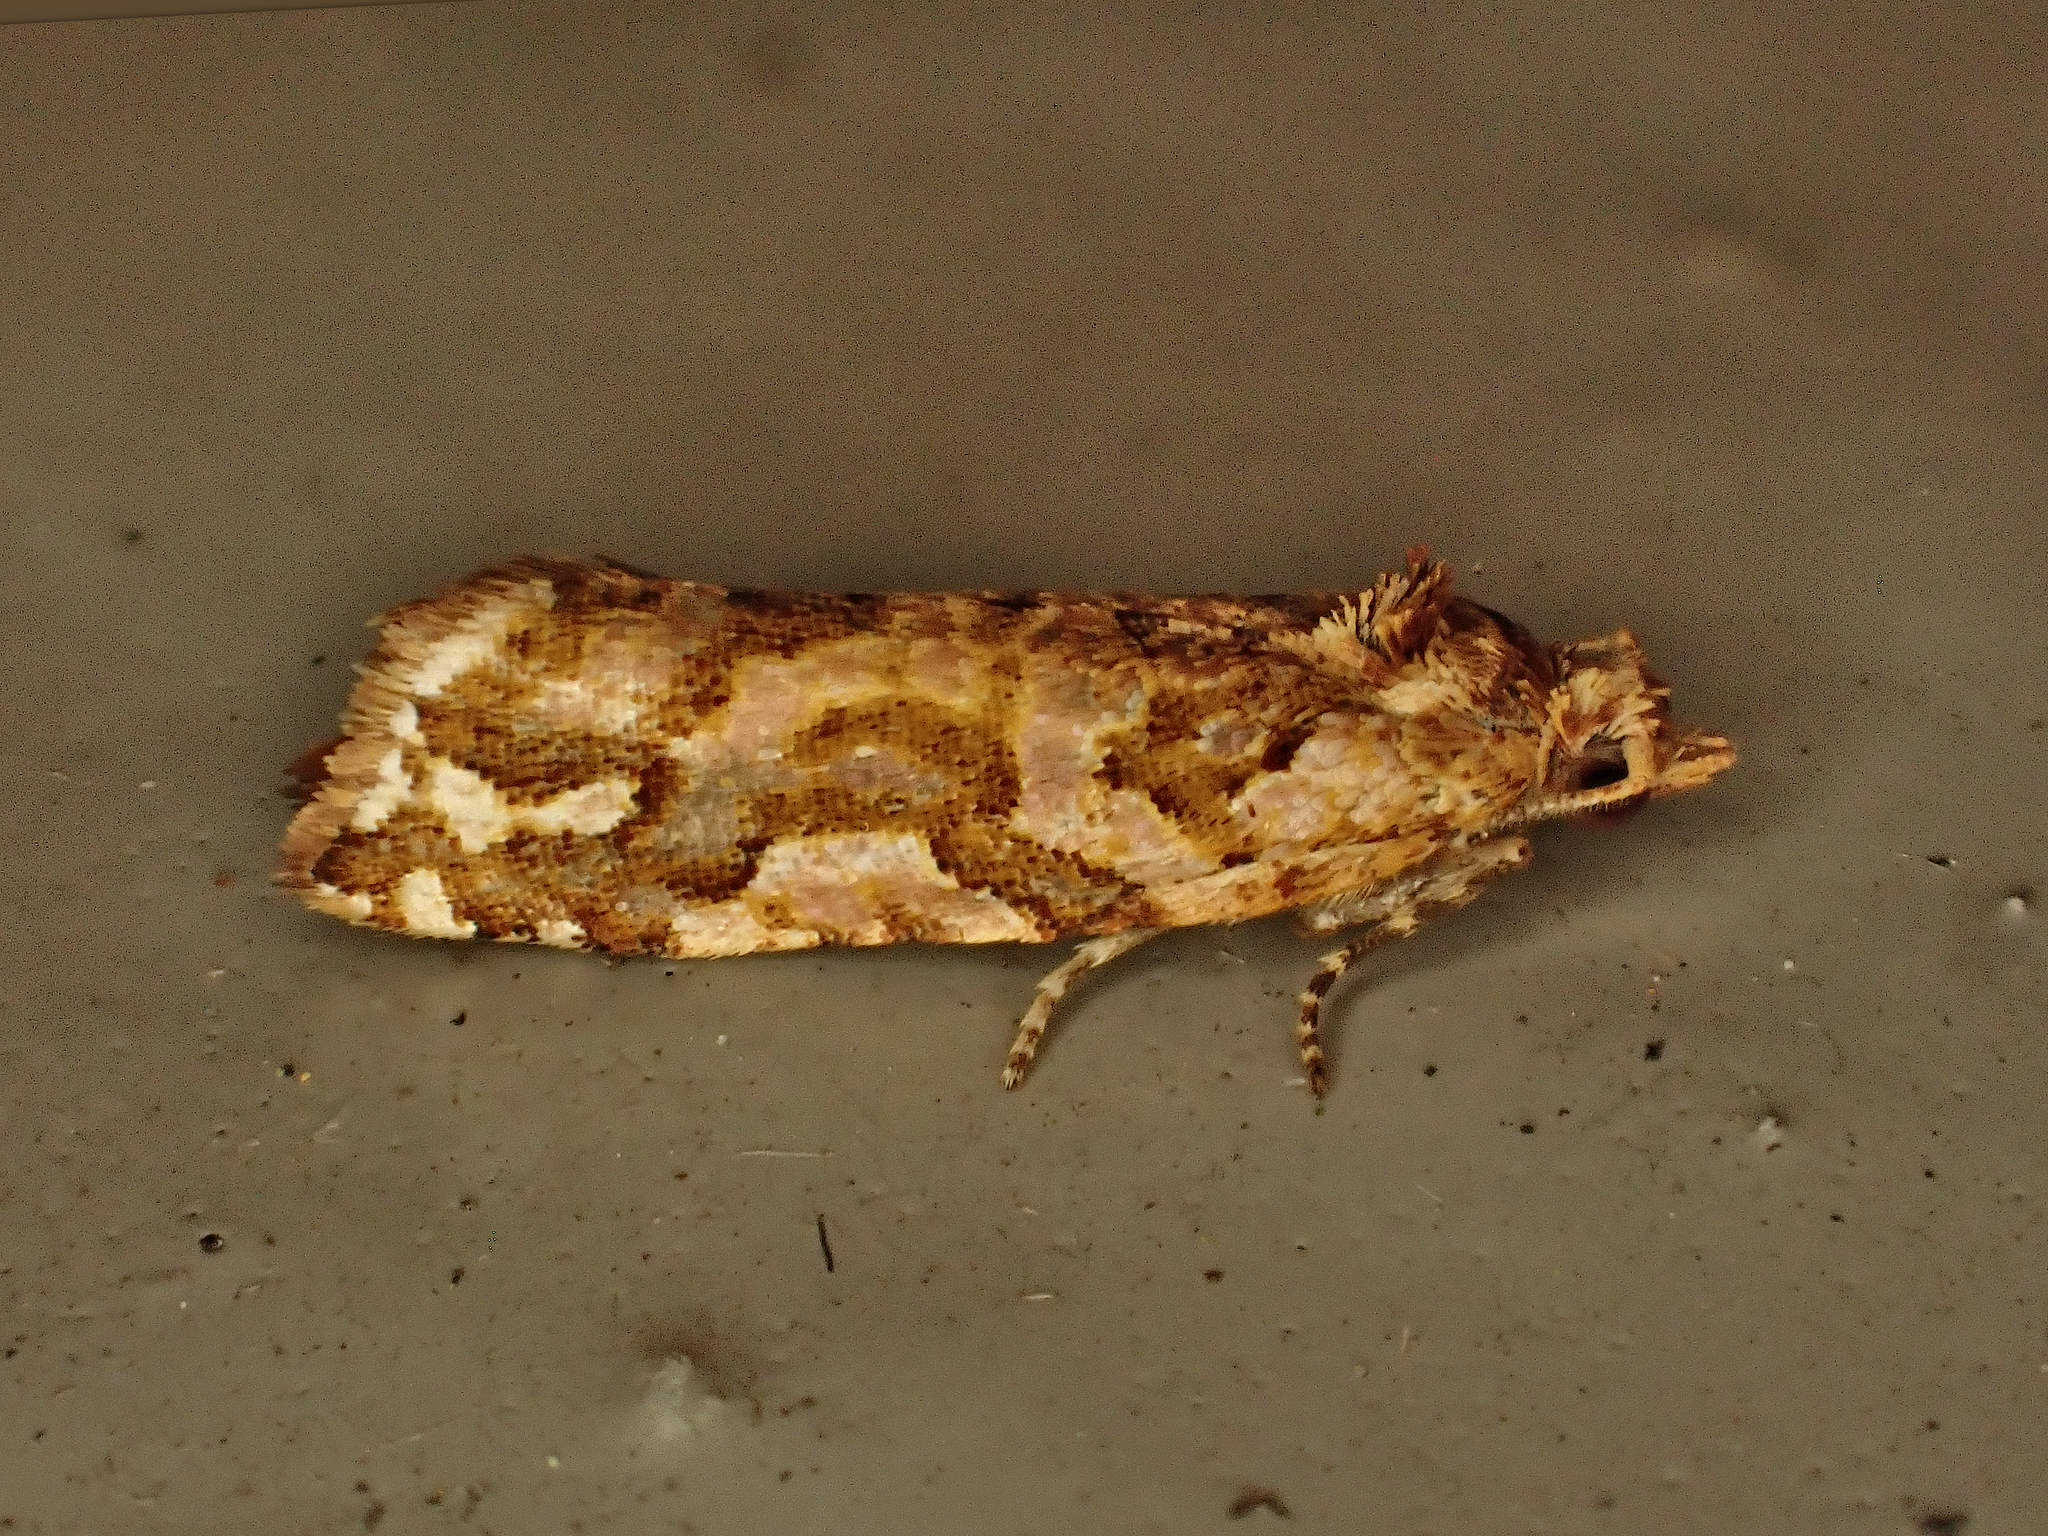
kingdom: Animalia
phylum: Arthropoda
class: Insecta
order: Lepidoptera
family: Tortricidae
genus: Pyrgotis
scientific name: Pyrgotis arcuata
